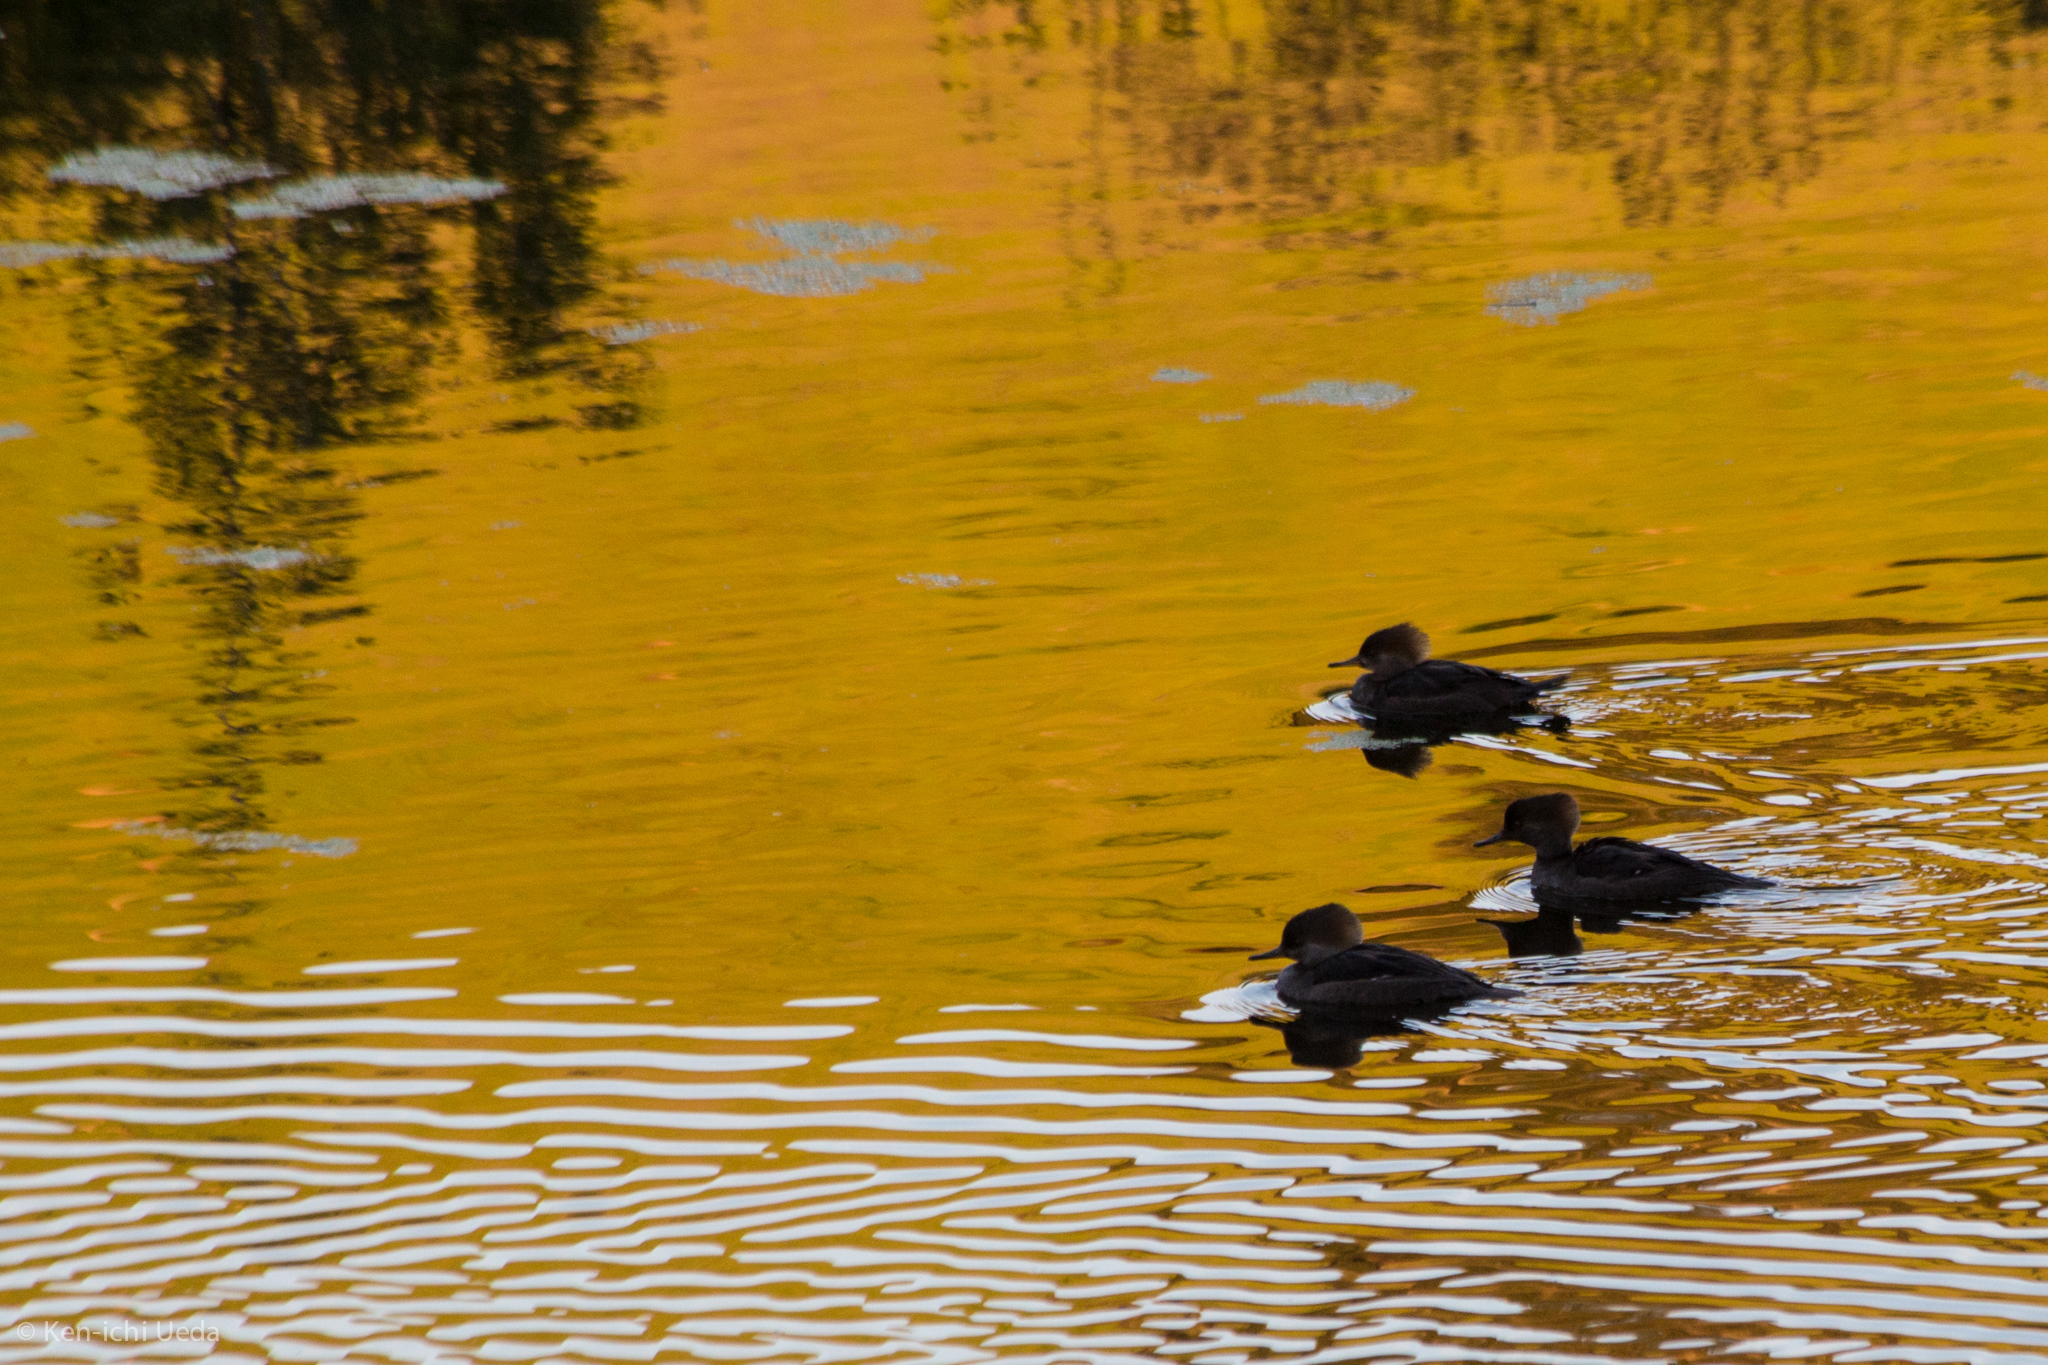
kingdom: Animalia
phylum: Chordata
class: Aves
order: Anseriformes
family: Anatidae
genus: Lophodytes
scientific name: Lophodytes cucullatus
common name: Hooded merganser
